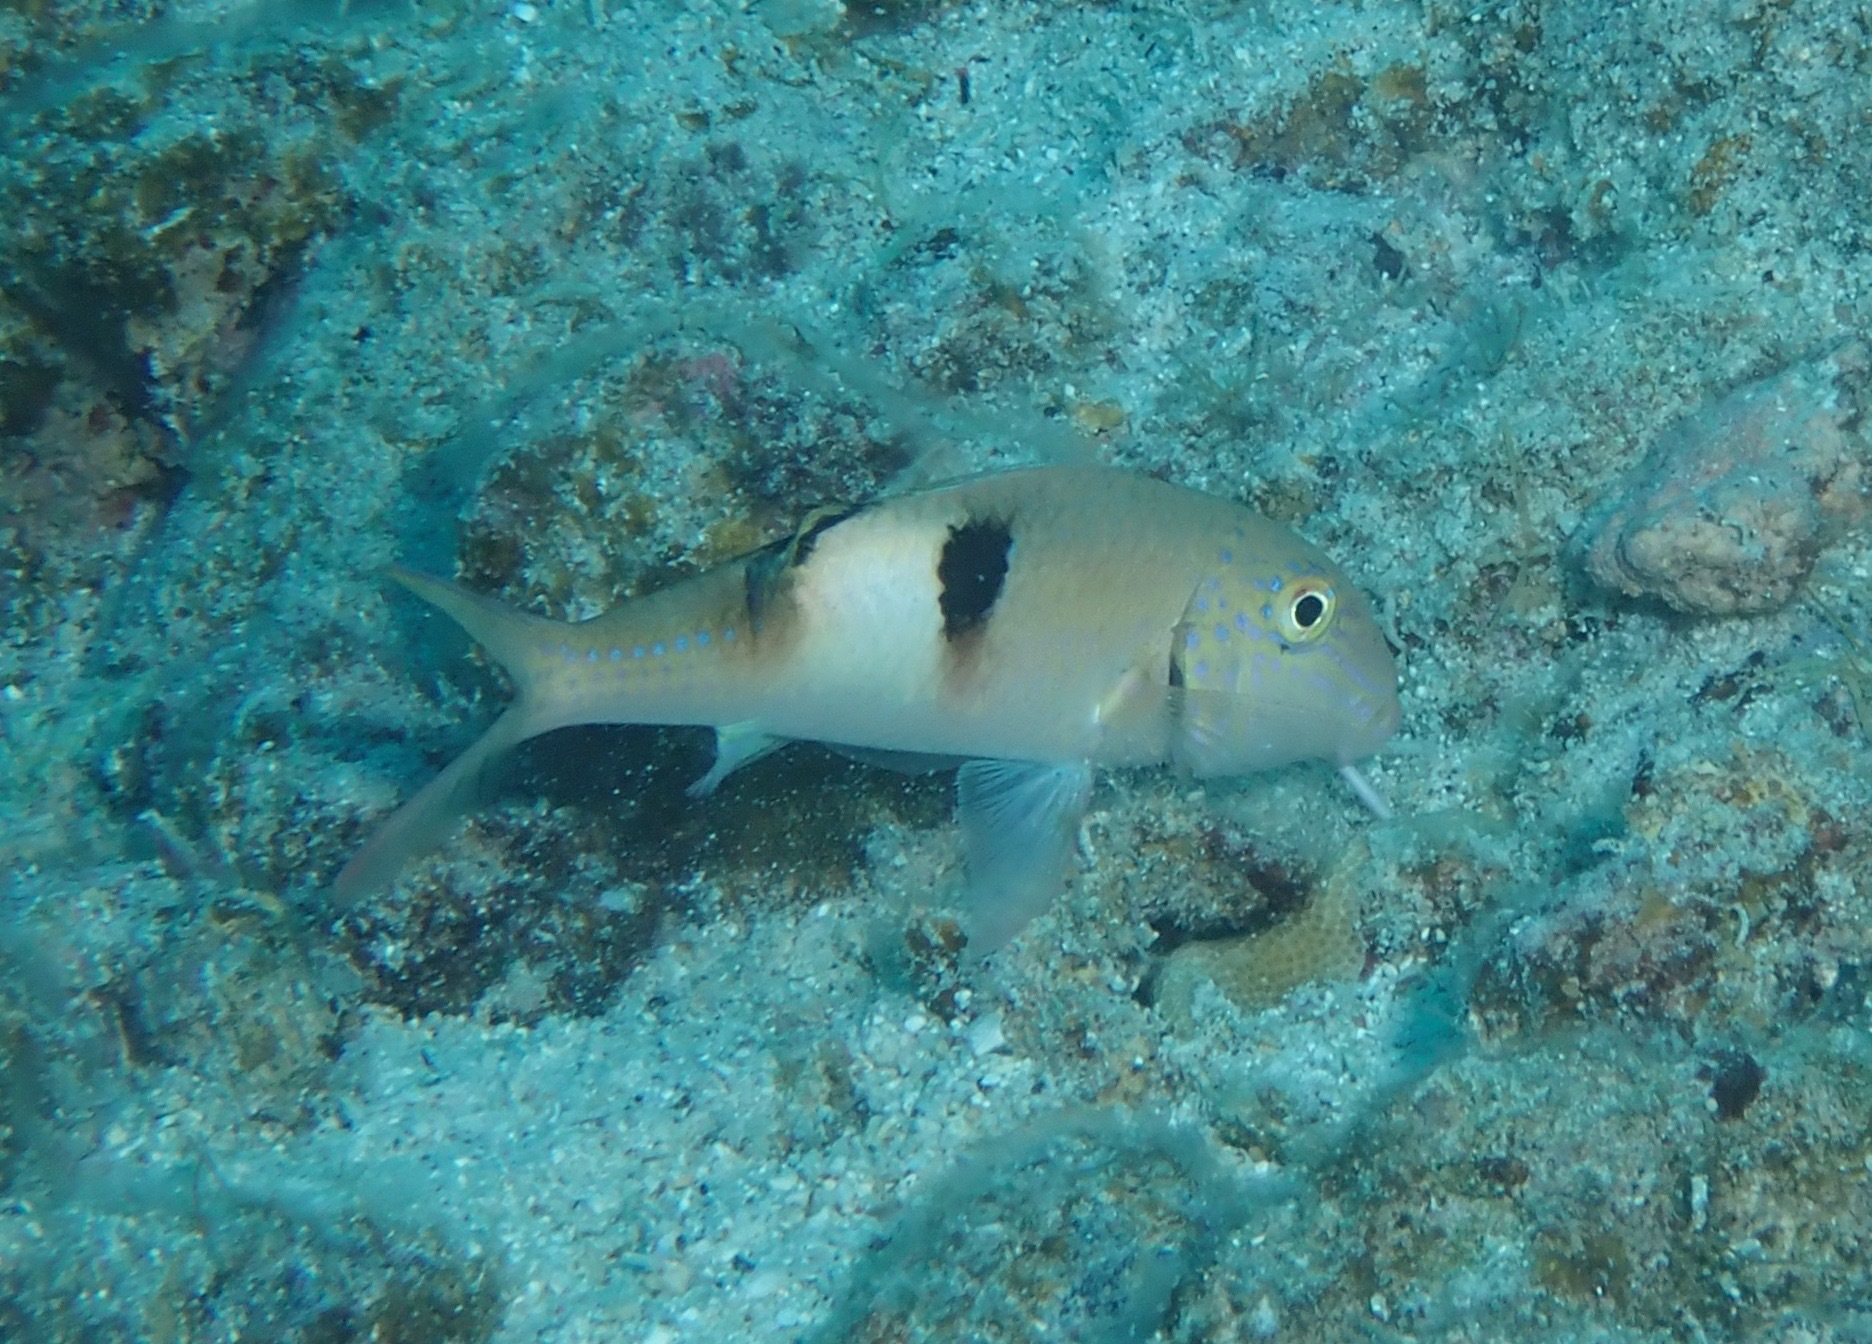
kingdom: Animalia
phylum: Chordata
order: Perciformes
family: Mullidae
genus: Parupeneus
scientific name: Parupeneus pleurostigma
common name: Sidespot goatfish
